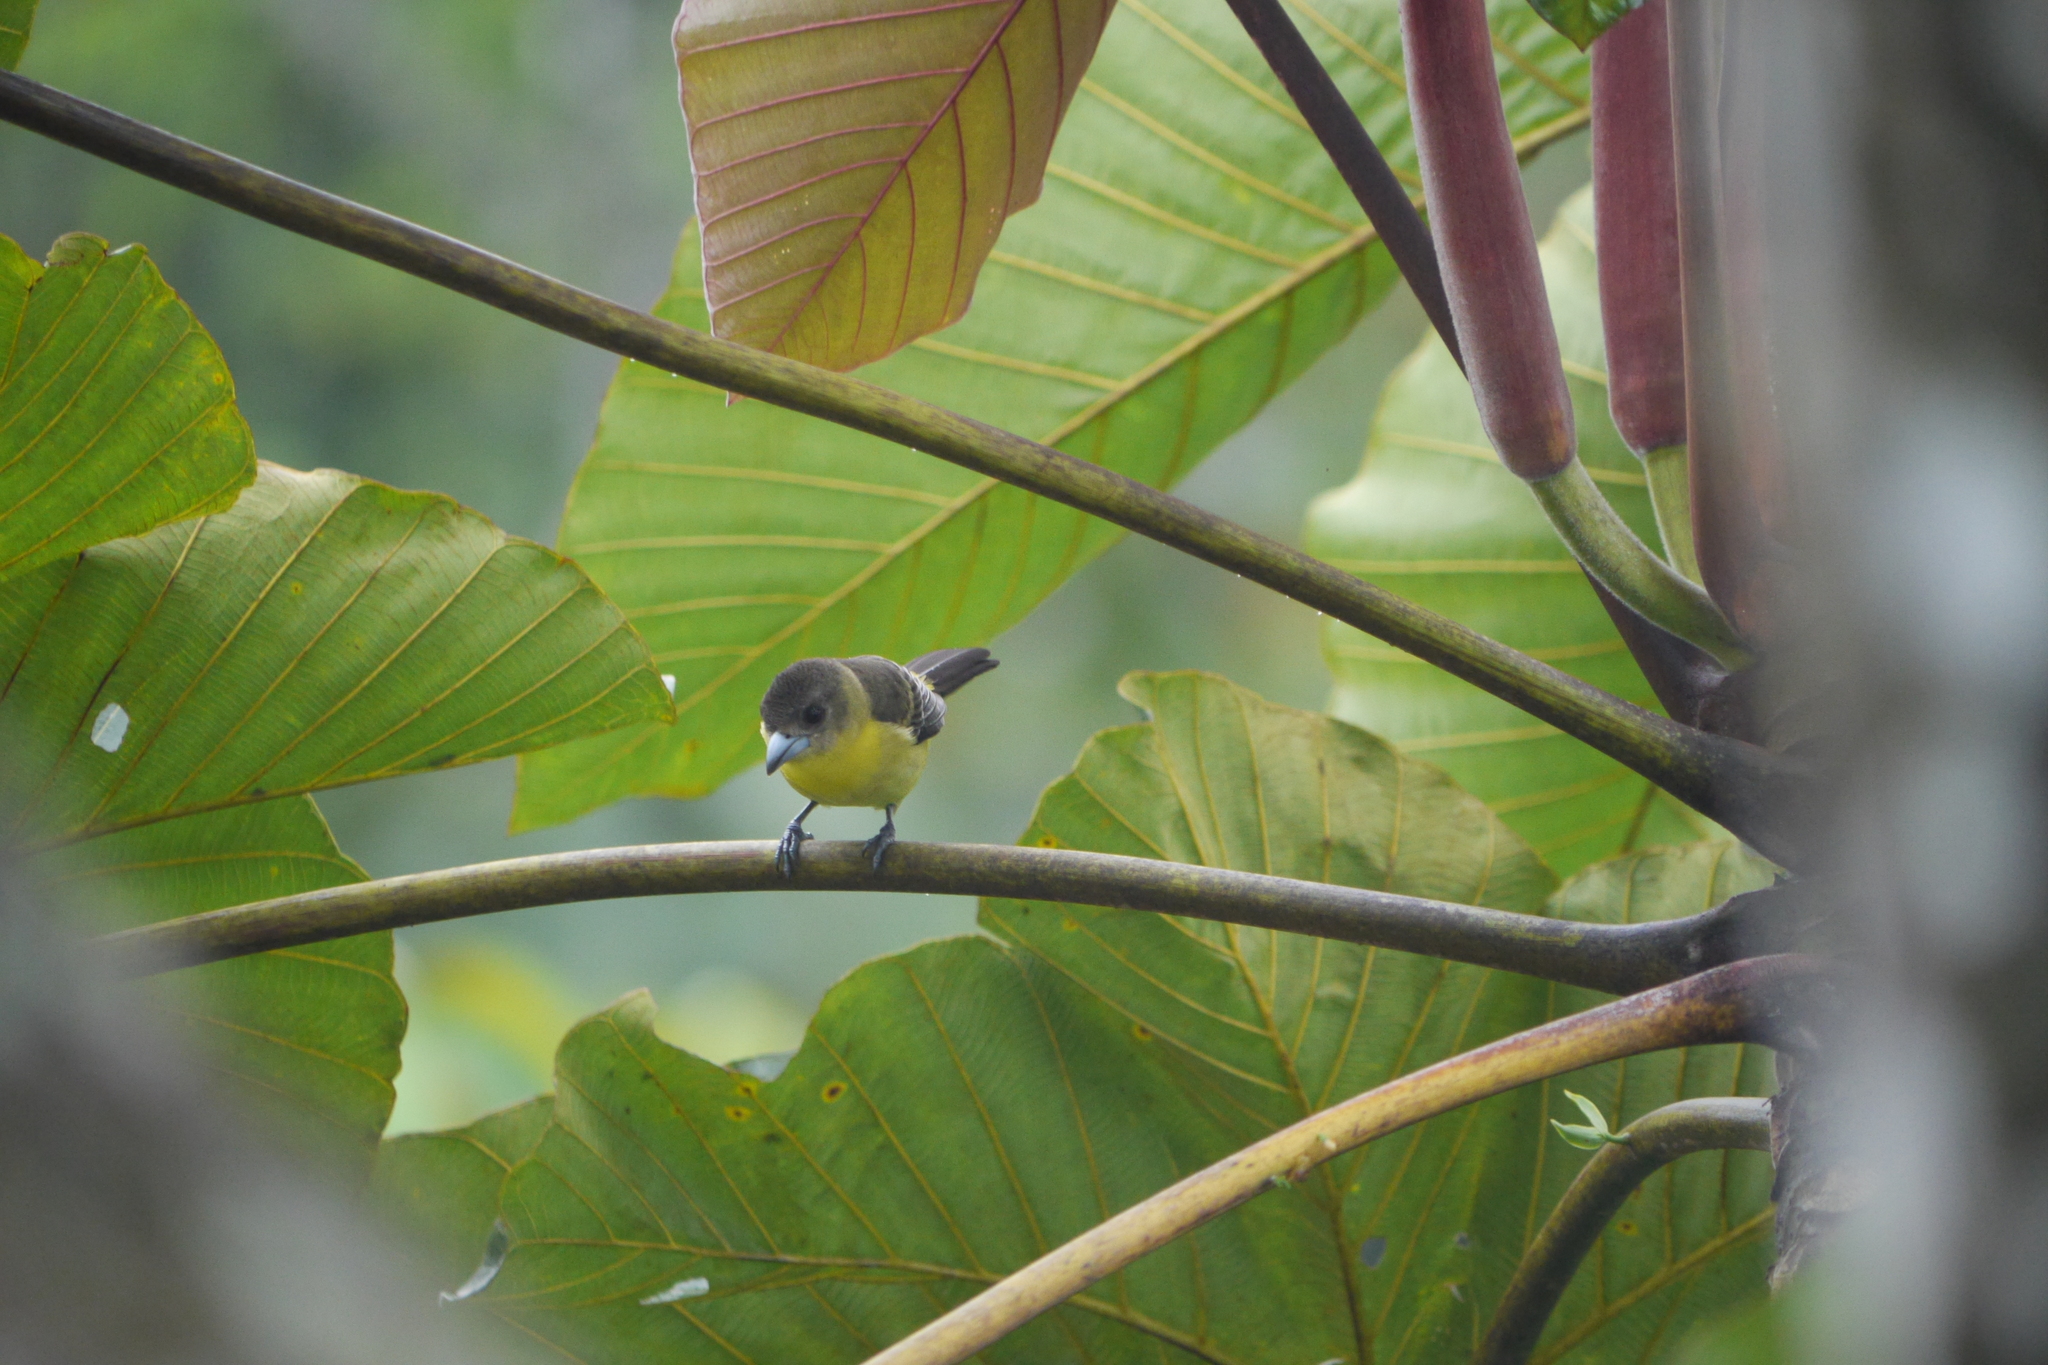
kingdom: Animalia
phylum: Chordata
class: Aves
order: Passeriformes
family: Thraupidae
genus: Ramphocelus
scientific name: Ramphocelus flammigerus
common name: Flame-rumped tanager
